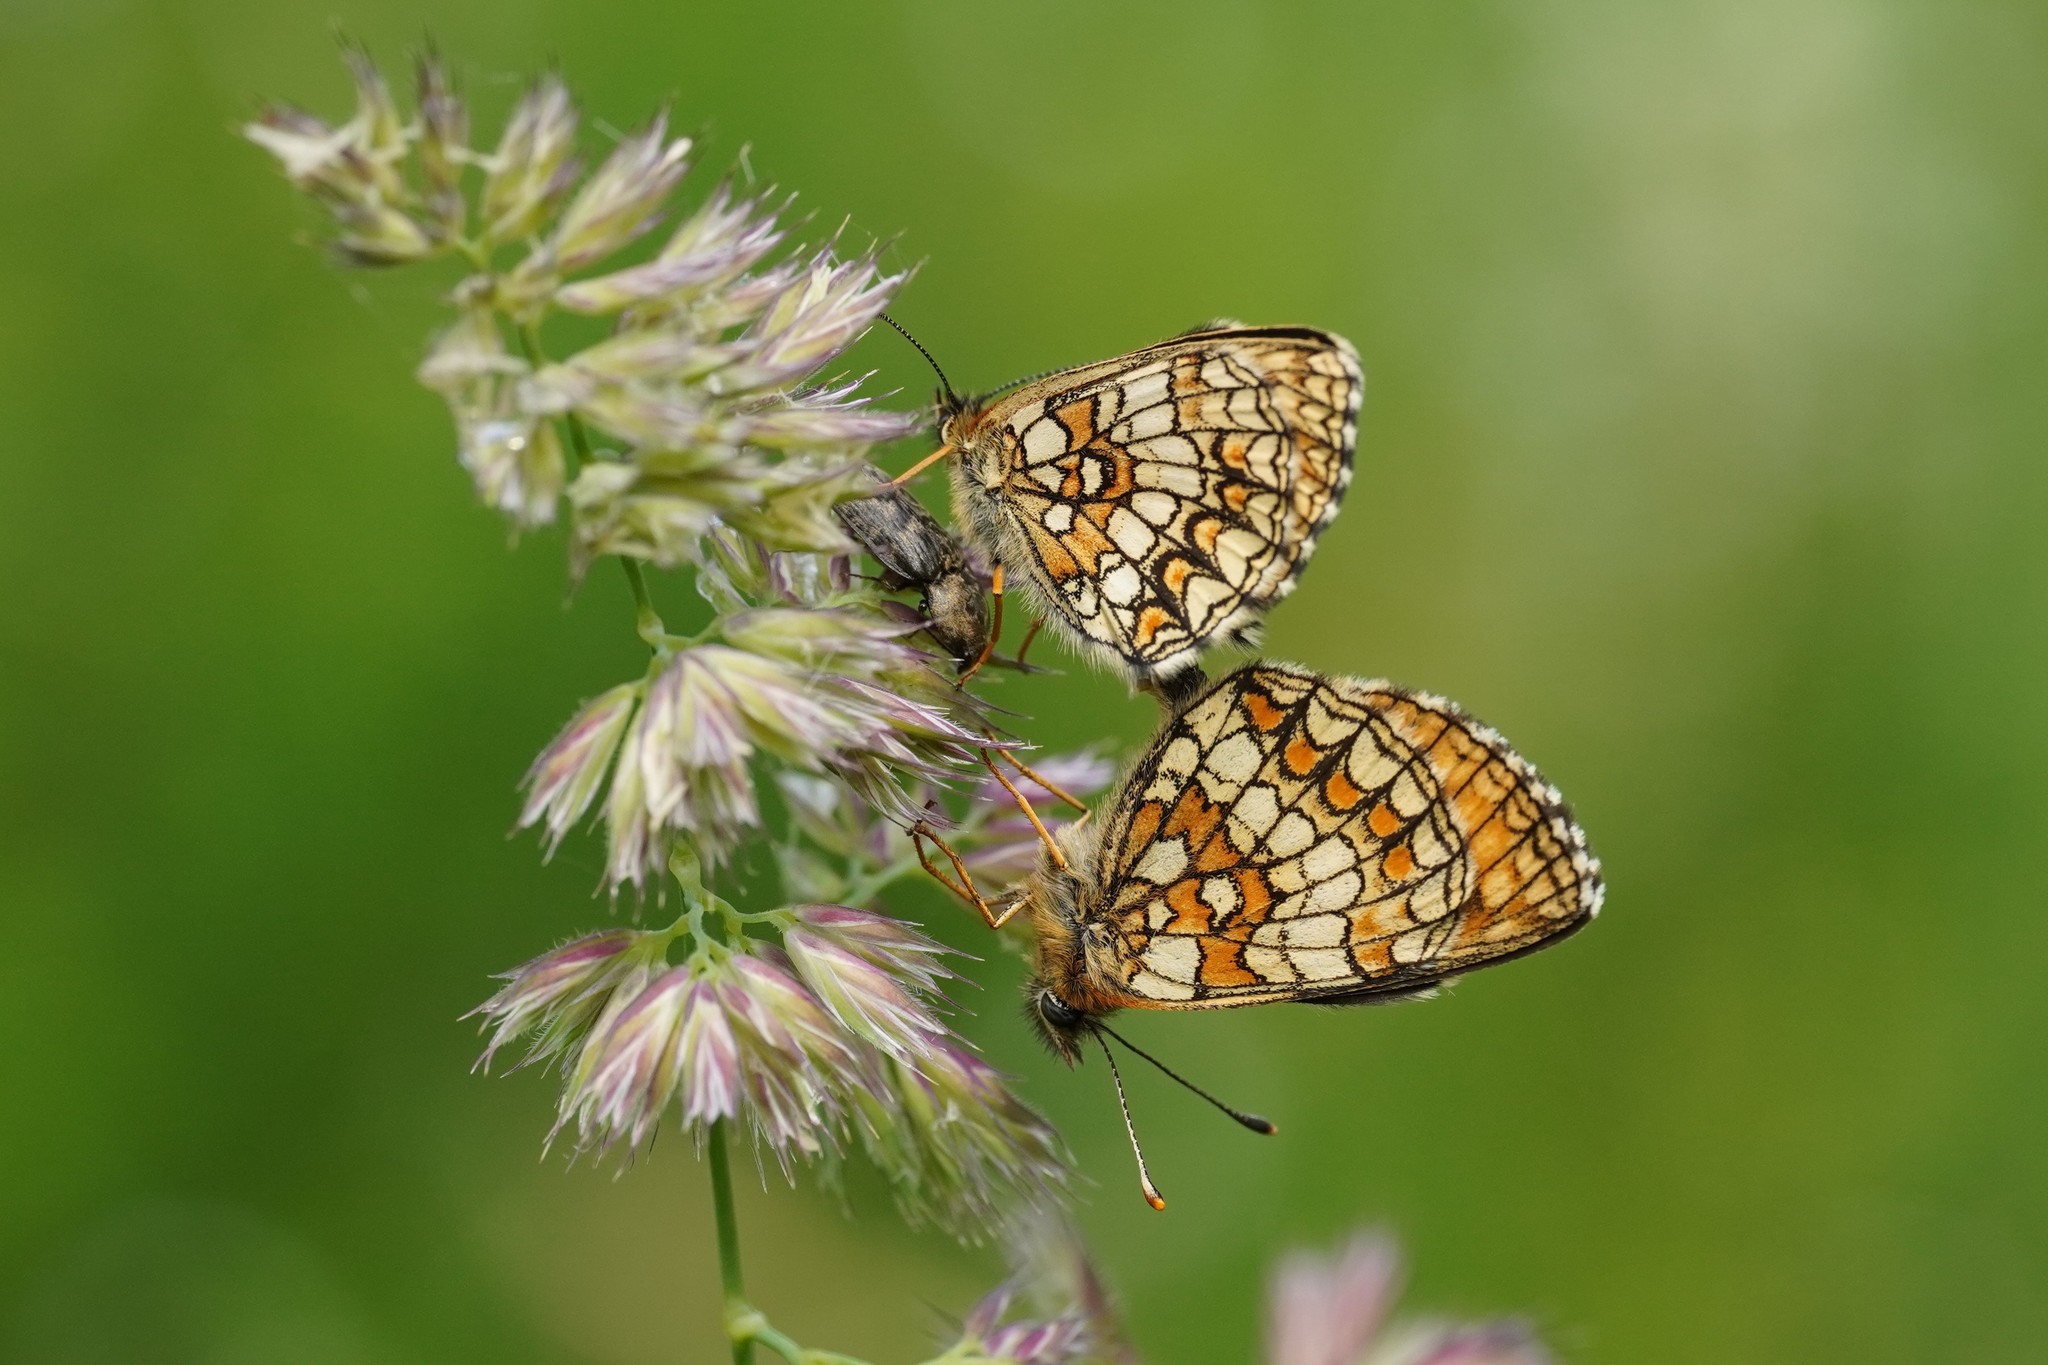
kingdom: Animalia
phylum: Arthropoda
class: Insecta
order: Lepidoptera
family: Nymphalidae
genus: Melitaea
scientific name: Melitaea athalia
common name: Heath fritillary
